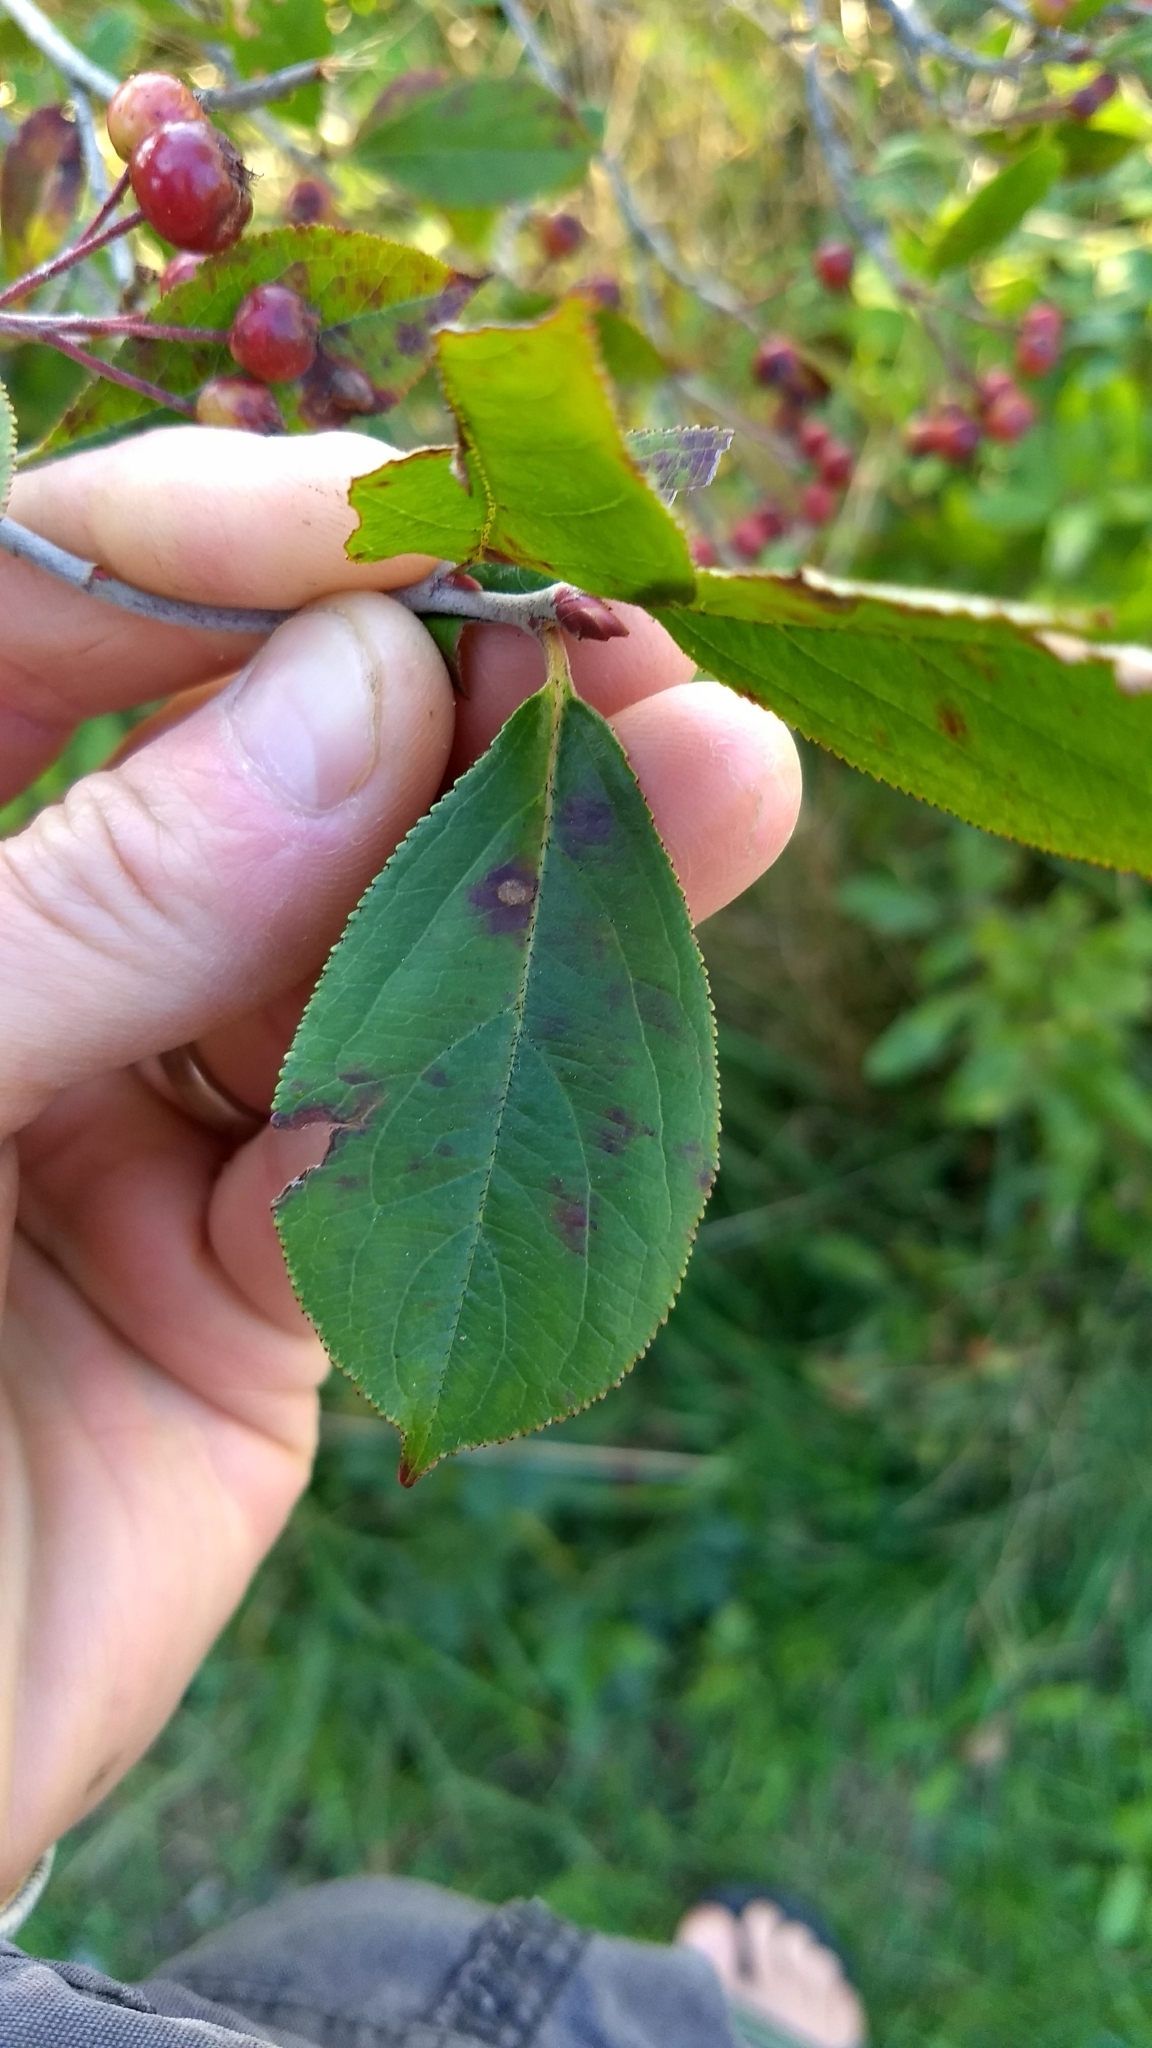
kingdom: Plantae
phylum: Tracheophyta
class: Magnoliopsida
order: Rosales
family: Rosaceae
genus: Aronia
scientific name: Aronia arbutifolia
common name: Red chokeberry
